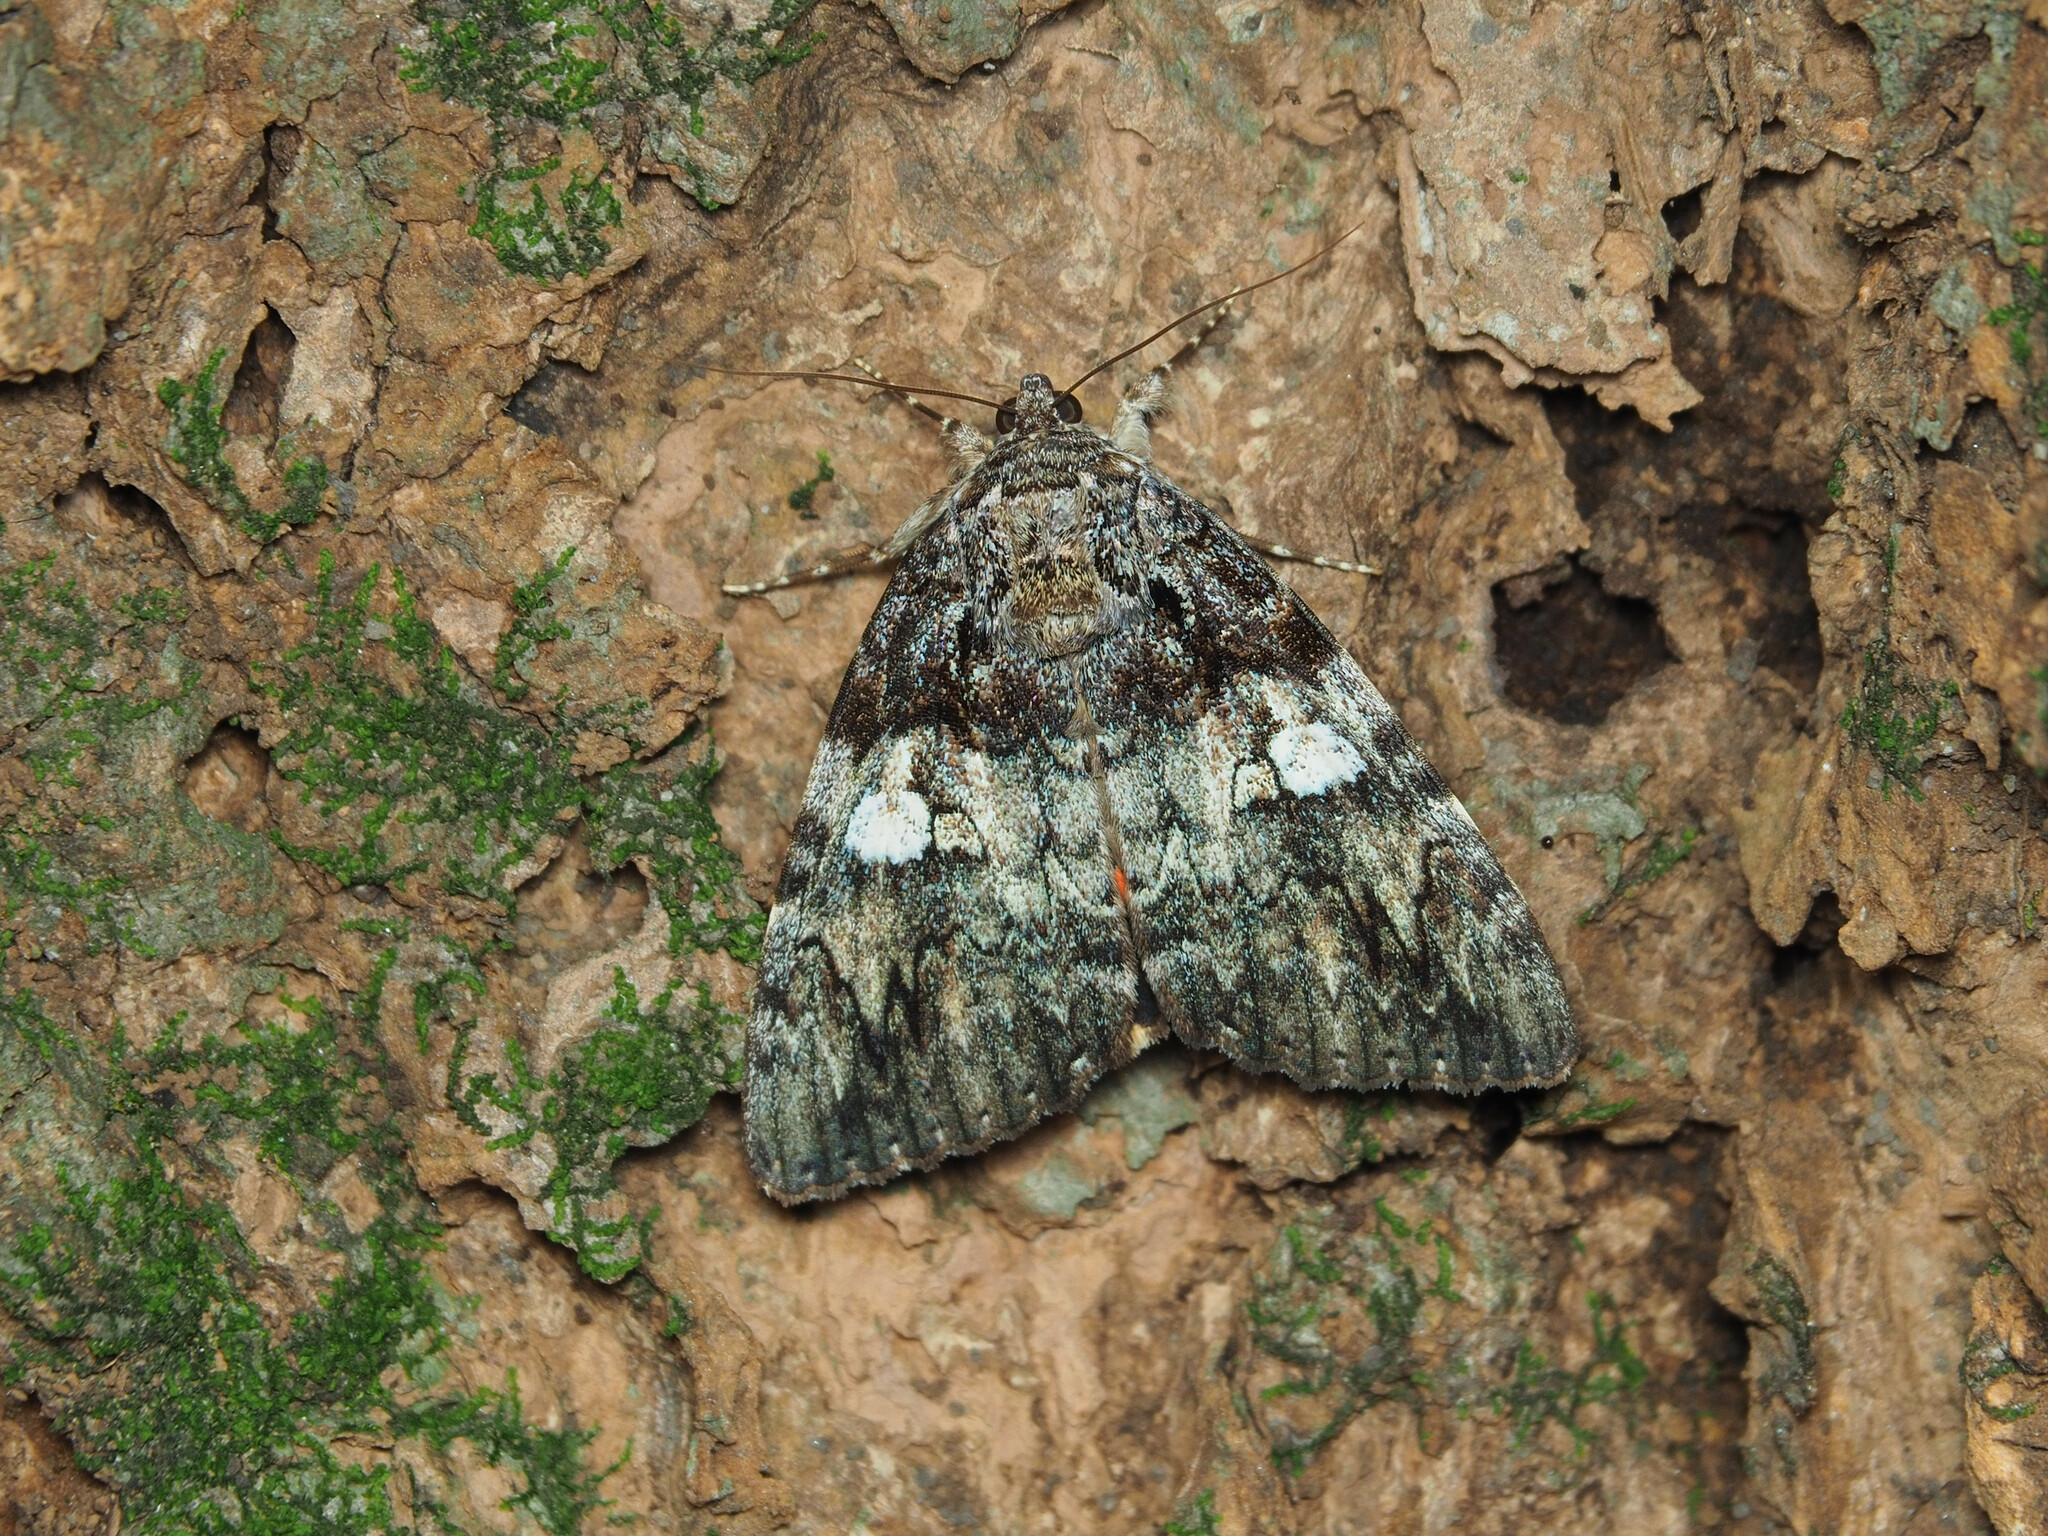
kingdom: Animalia
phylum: Arthropoda
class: Insecta
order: Lepidoptera
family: Erebidae
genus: Catocala
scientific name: Catocala ilia
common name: Ilia underwing
